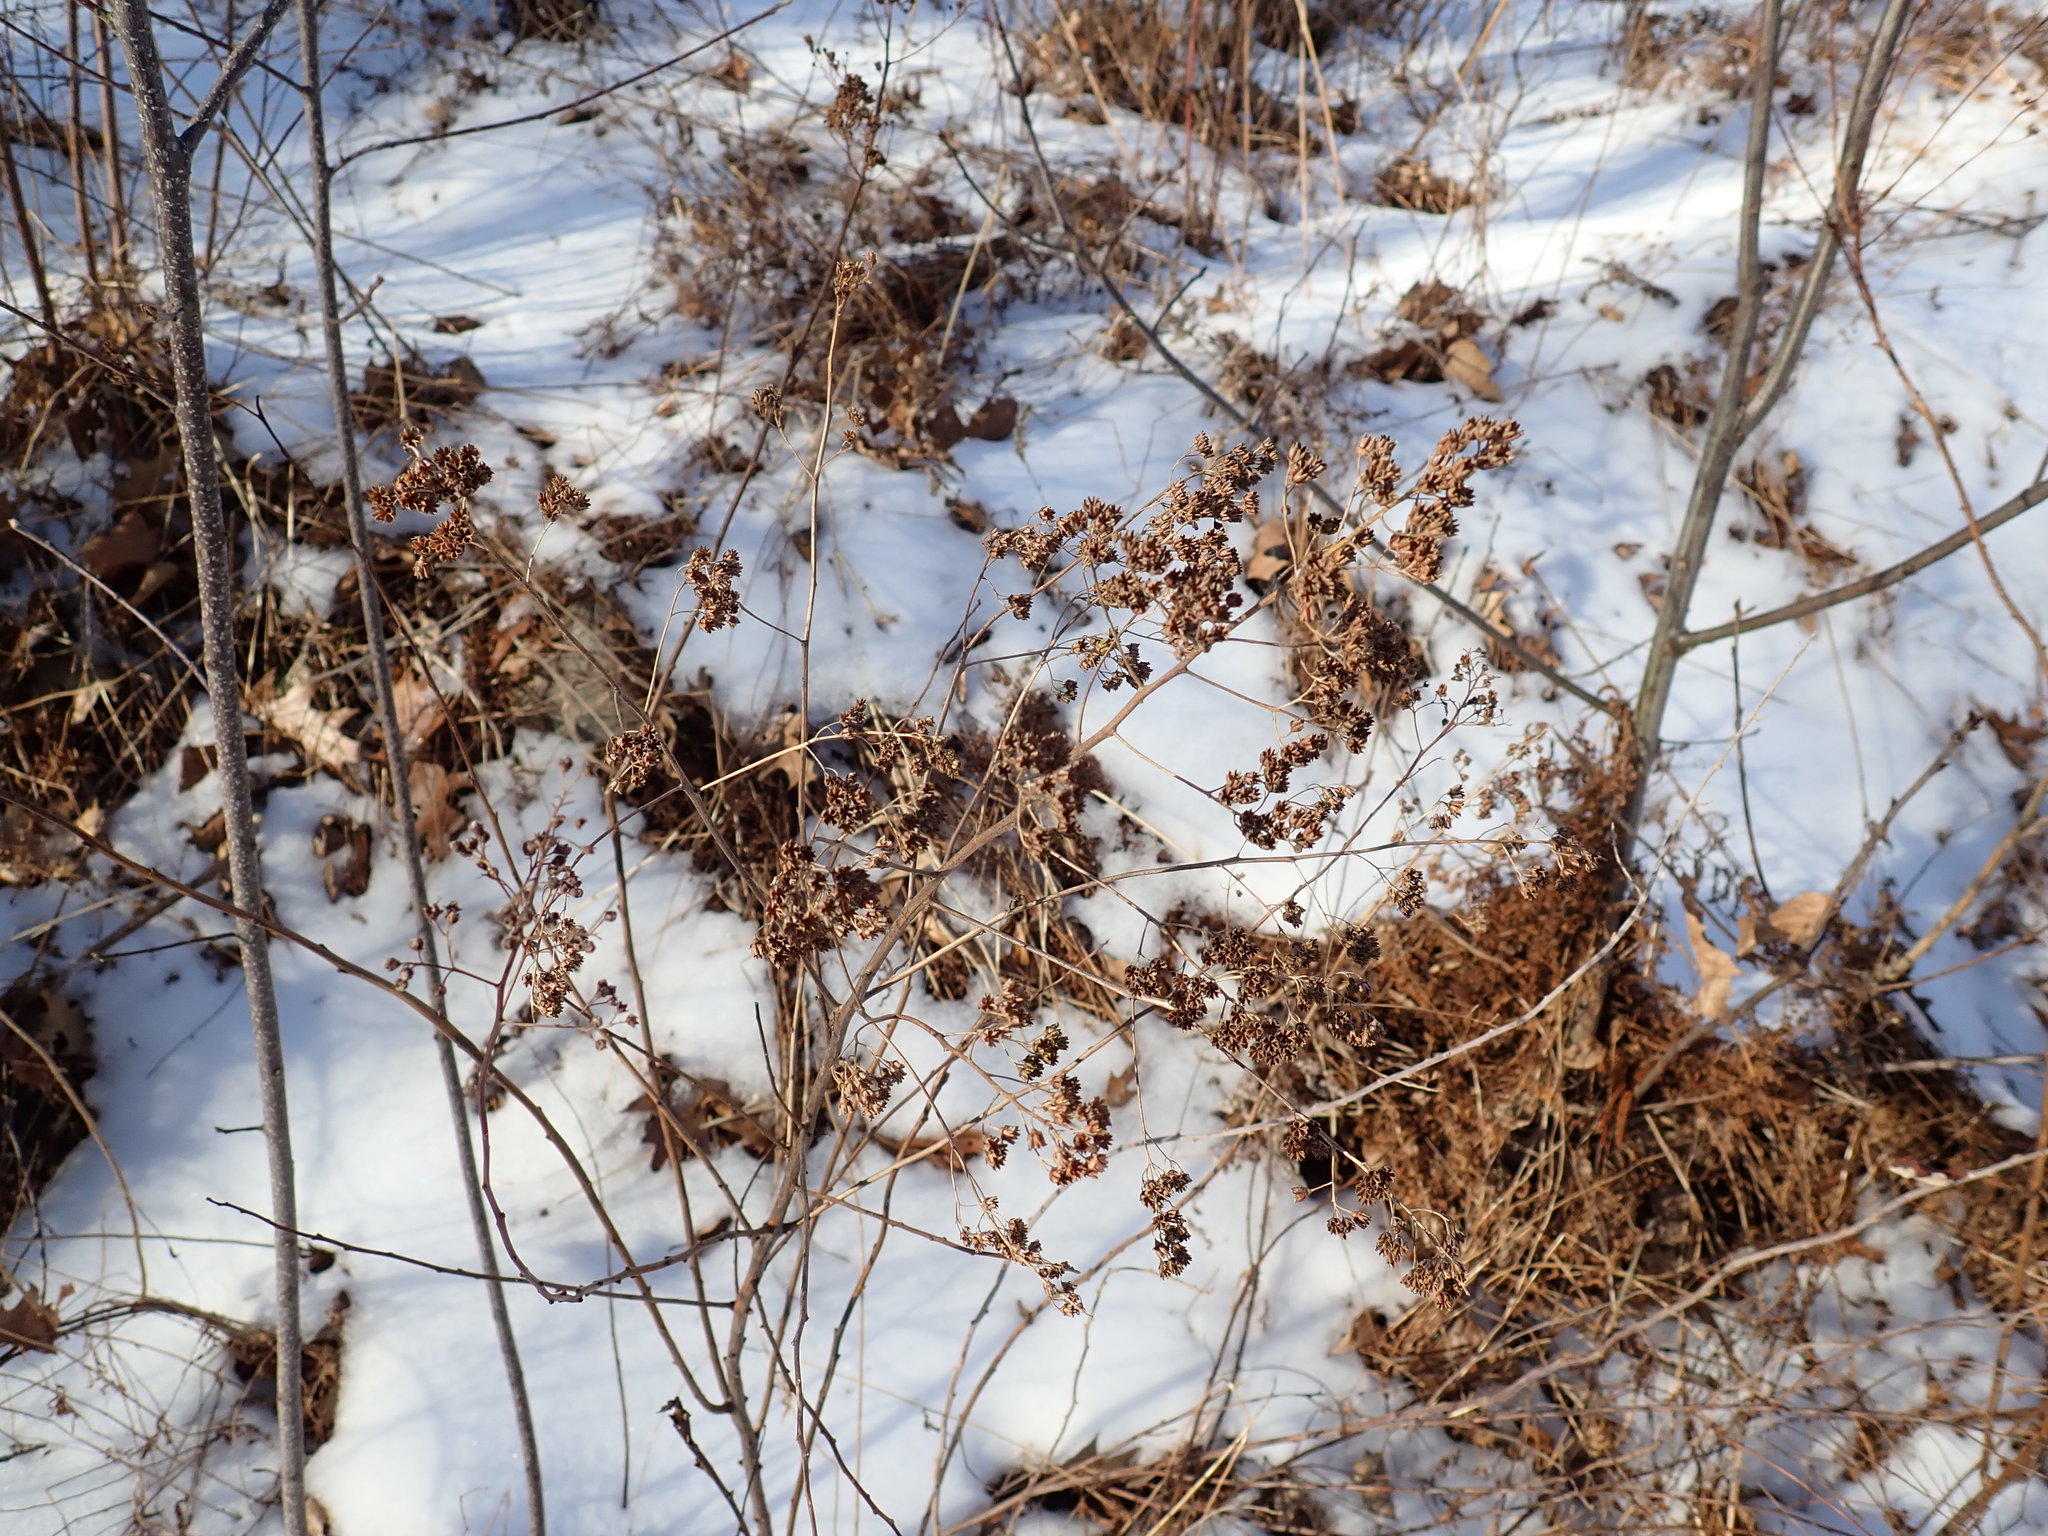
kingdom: Plantae
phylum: Tracheophyta
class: Magnoliopsida
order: Rosales
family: Rosaceae
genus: Spiraea
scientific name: Spiraea alba
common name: Pale bridewort
